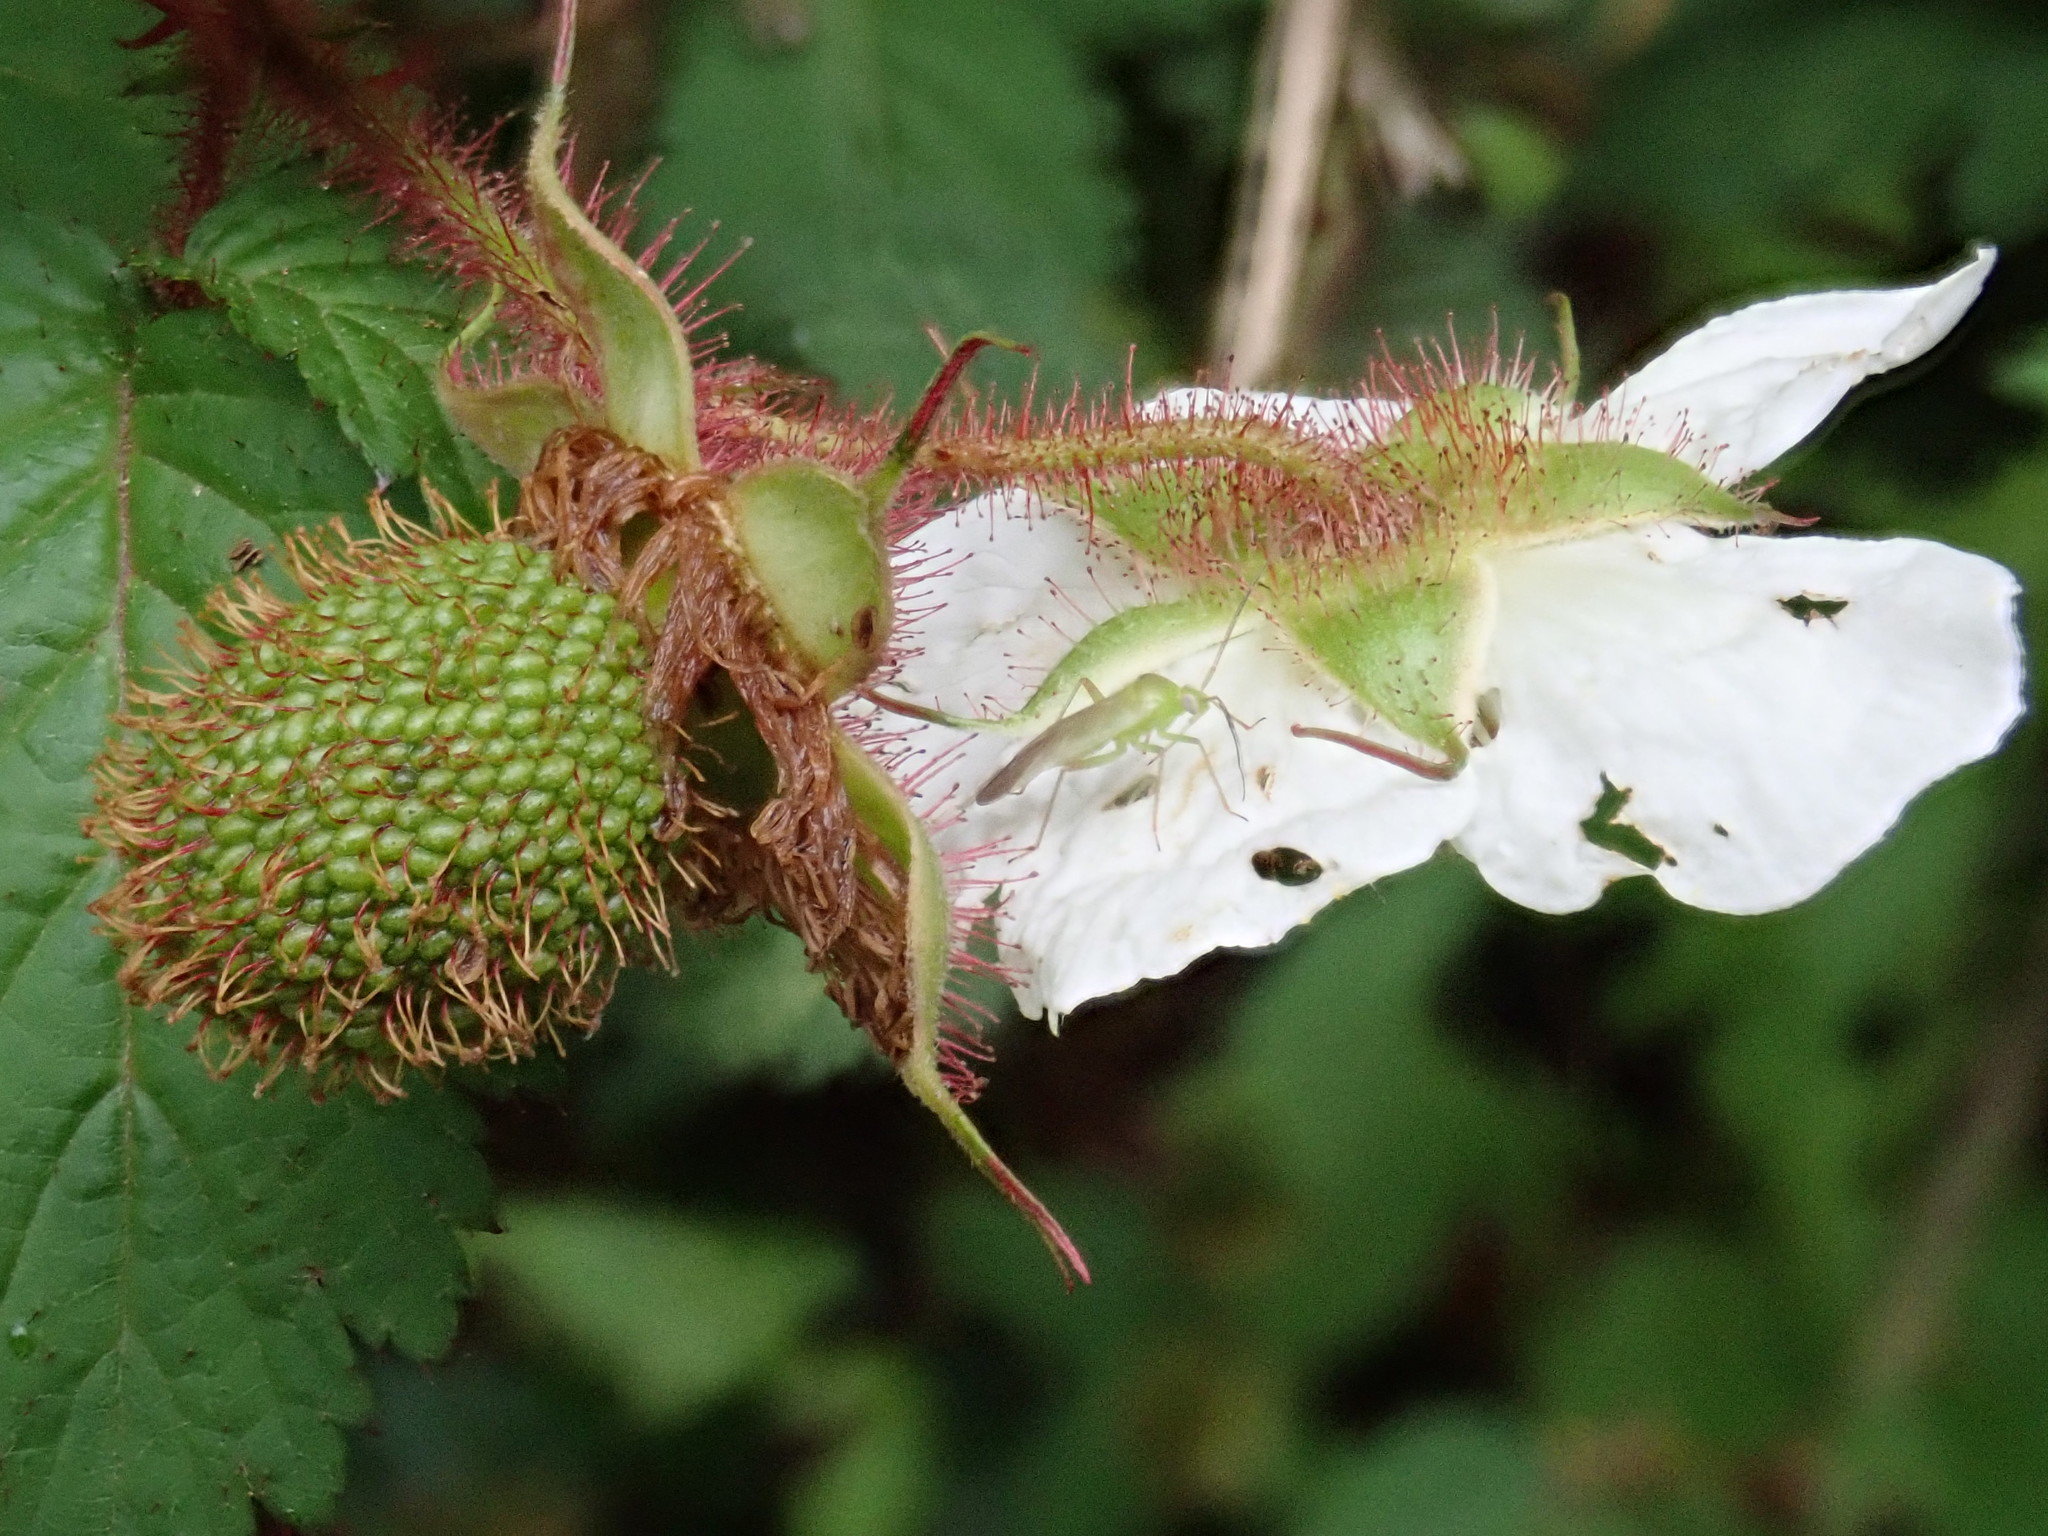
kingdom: Plantae
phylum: Tracheophyta
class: Magnoliopsida
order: Rosales
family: Rosaceae
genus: Rubus
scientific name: Rubus croceacanthus
